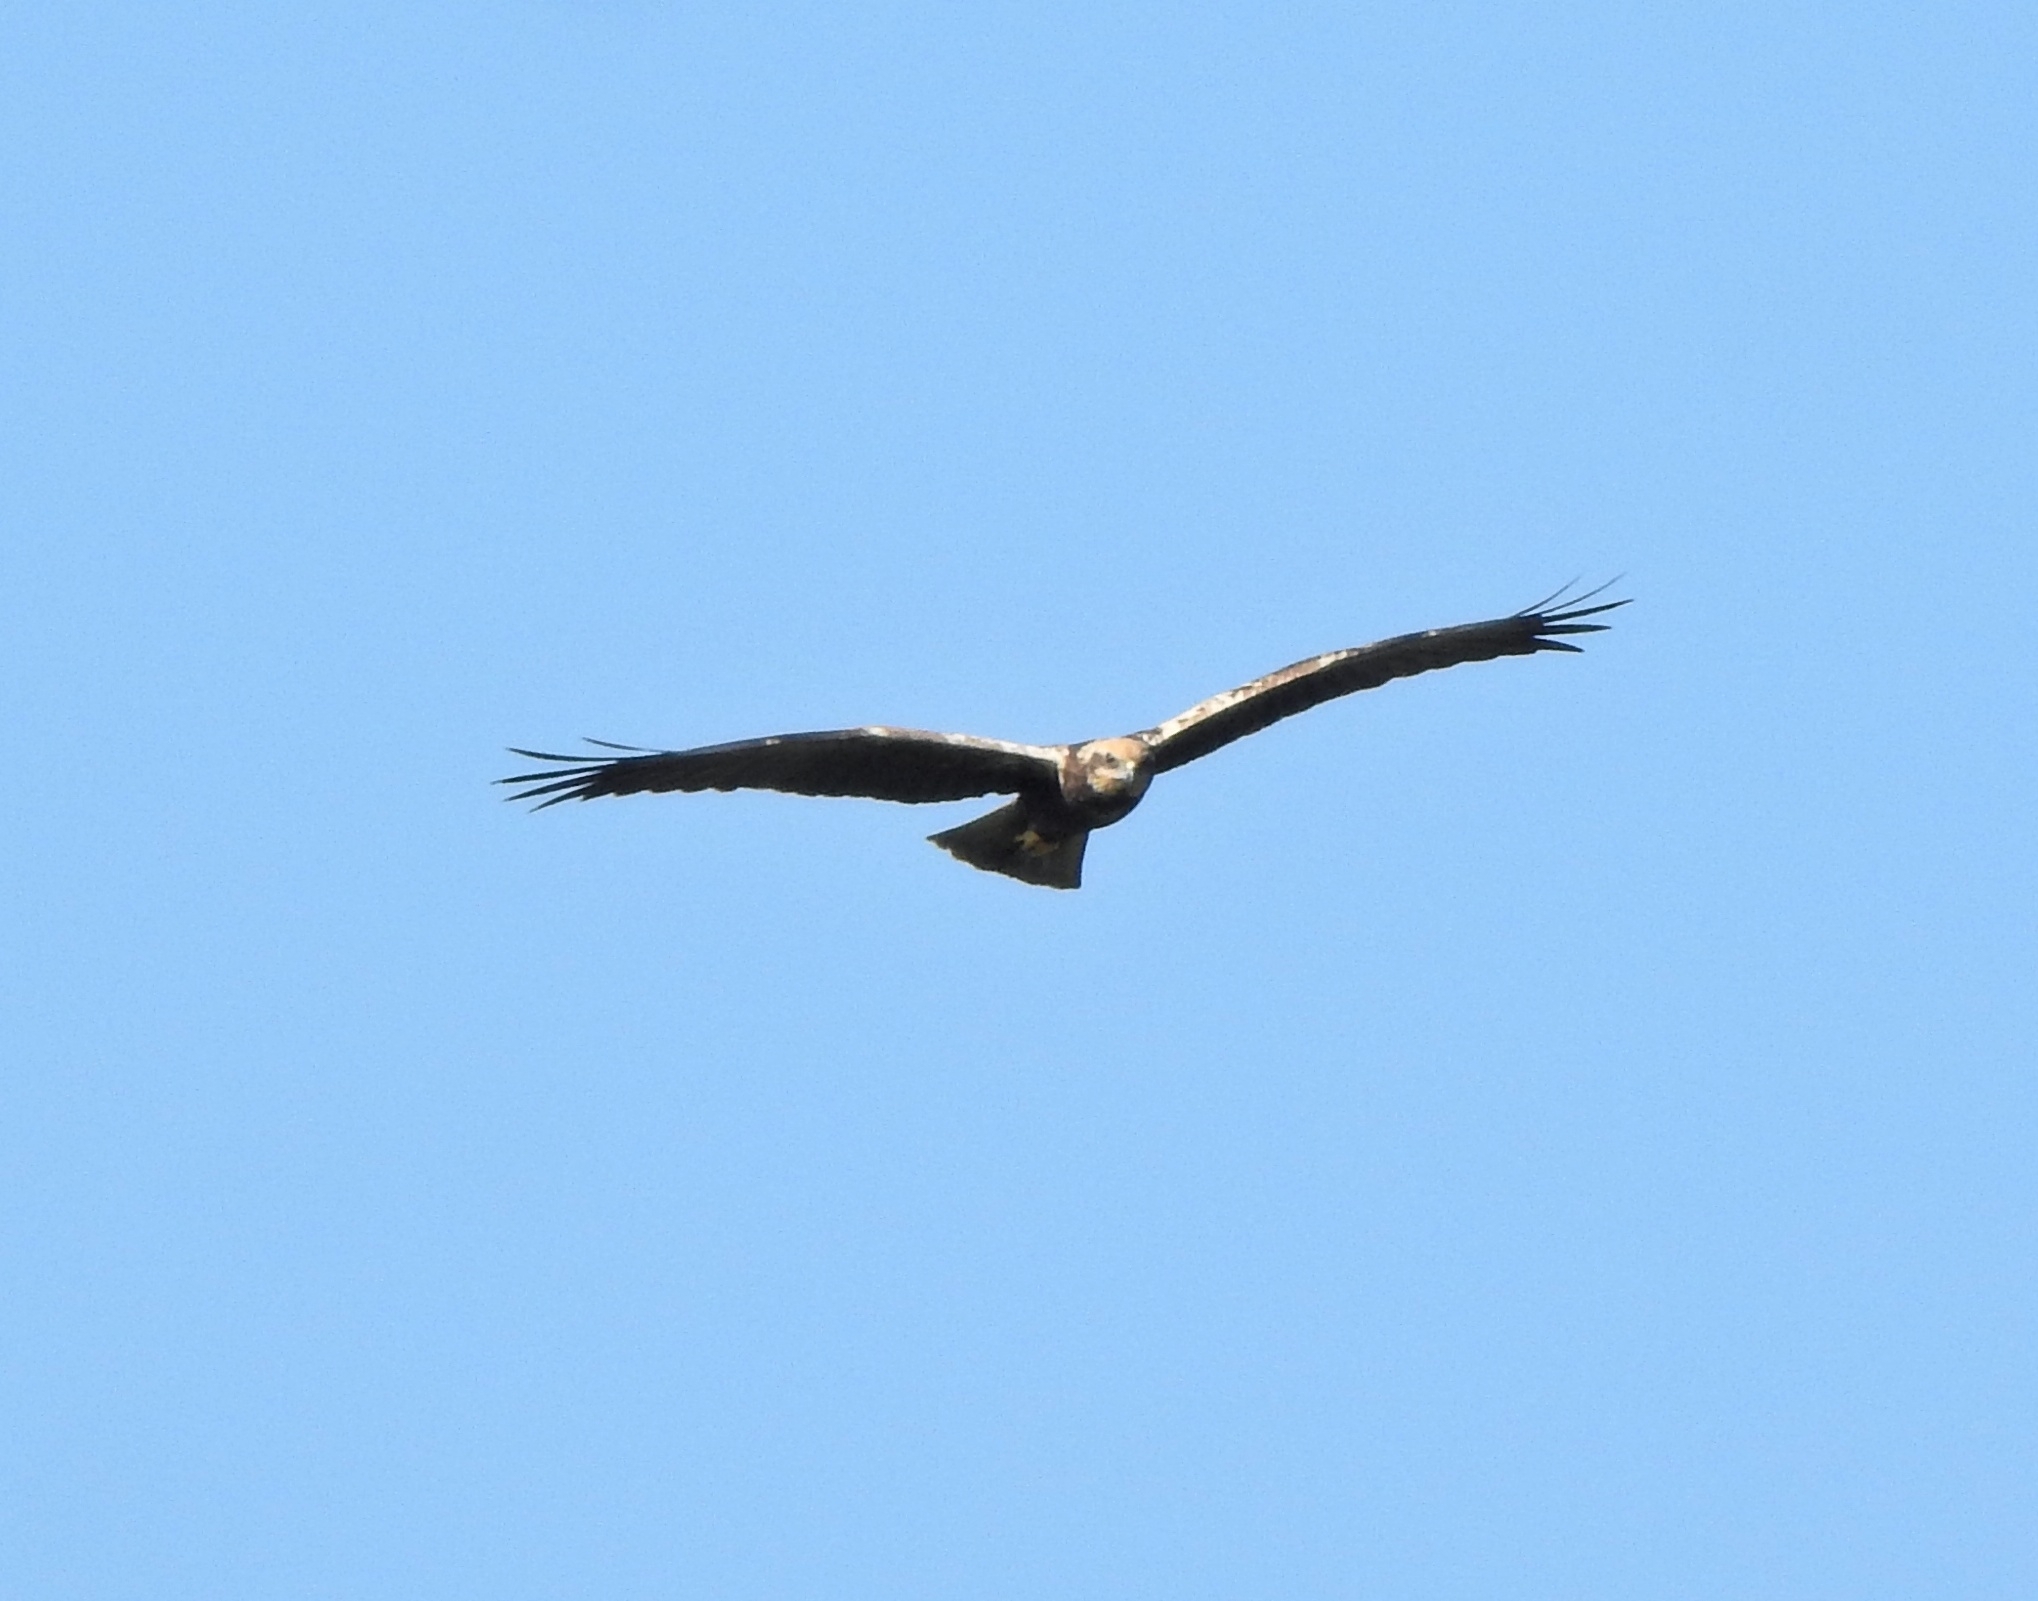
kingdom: Animalia
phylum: Chordata
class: Aves
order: Accipitriformes
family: Accipitridae
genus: Circus
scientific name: Circus aeruginosus
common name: Western marsh harrier
